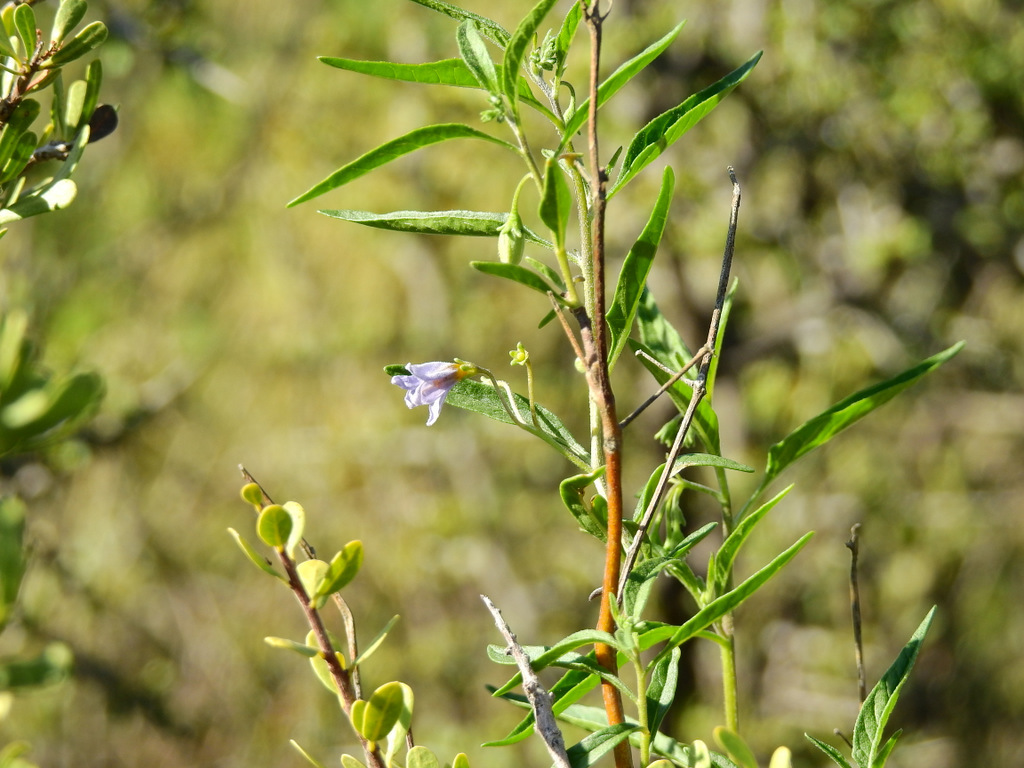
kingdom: Plantae
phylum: Tracheophyta
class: Magnoliopsida
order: Solanales
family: Solanaceae
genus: Solanum
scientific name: Solanum salicifolium
